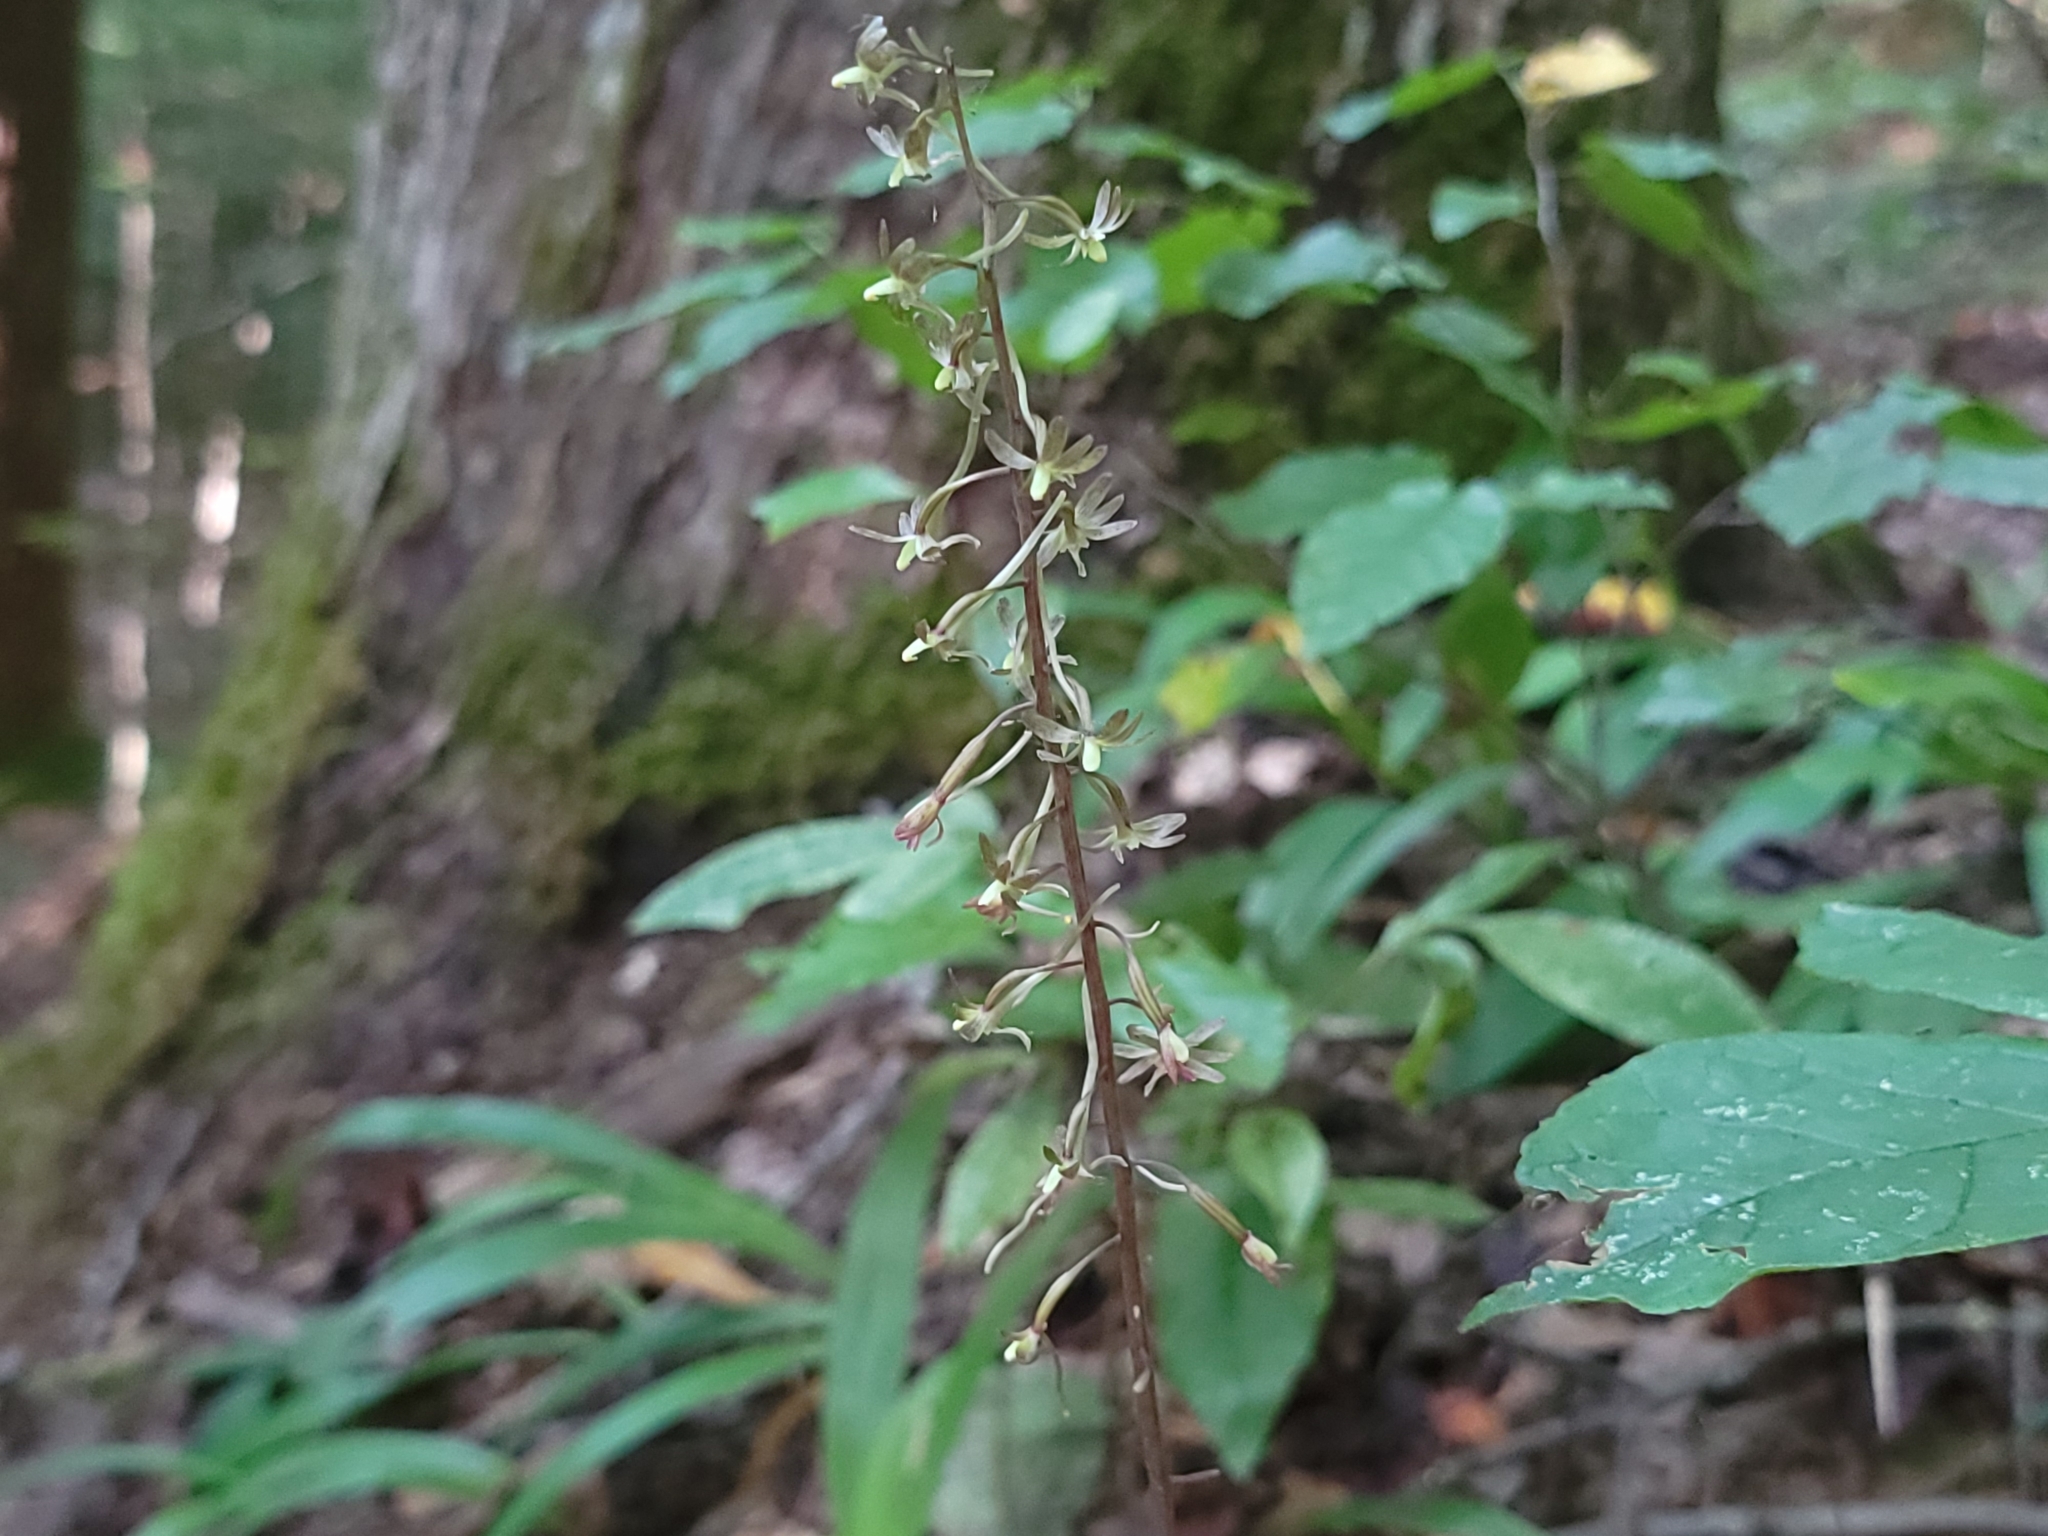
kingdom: Plantae
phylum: Tracheophyta
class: Liliopsida
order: Asparagales
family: Orchidaceae
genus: Tipularia
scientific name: Tipularia discolor
